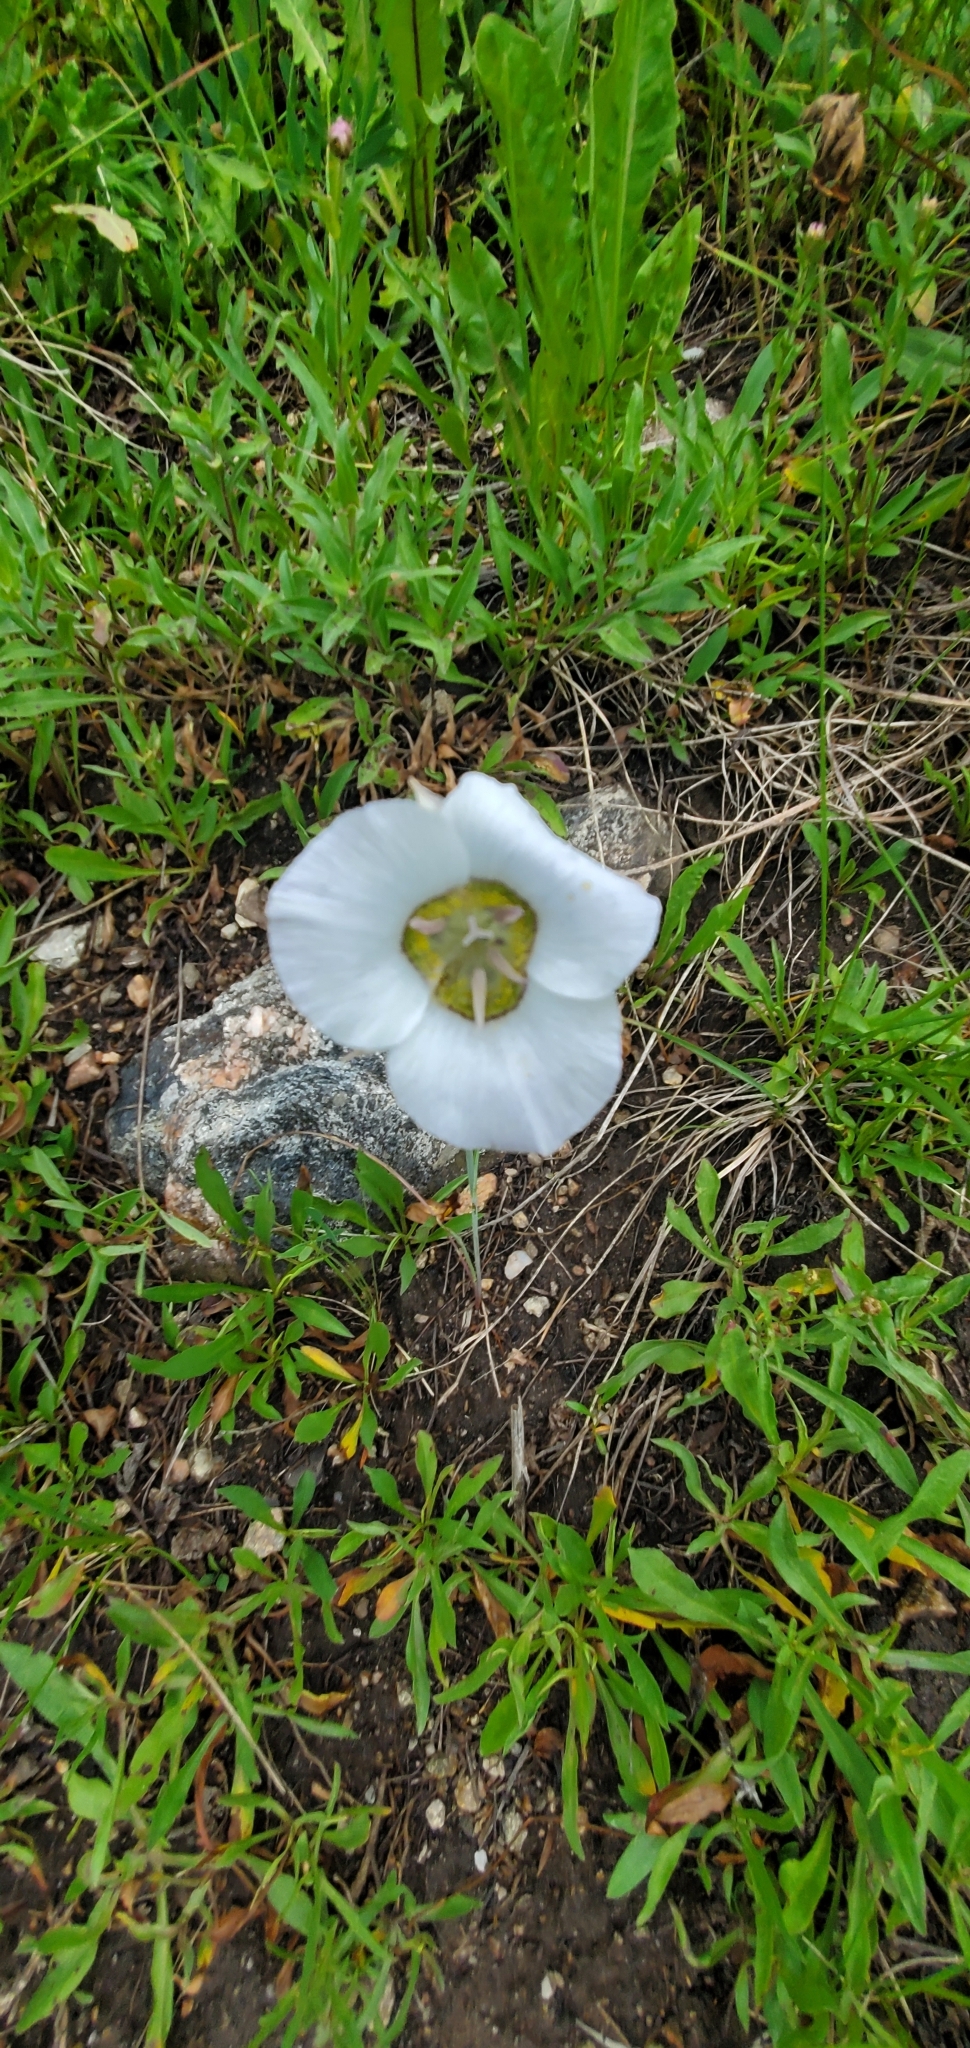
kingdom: Plantae
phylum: Tracheophyta
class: Liliopsida
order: Liliales
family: Liliaceae
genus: Calochortus
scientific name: Calochortus gunnisonii
